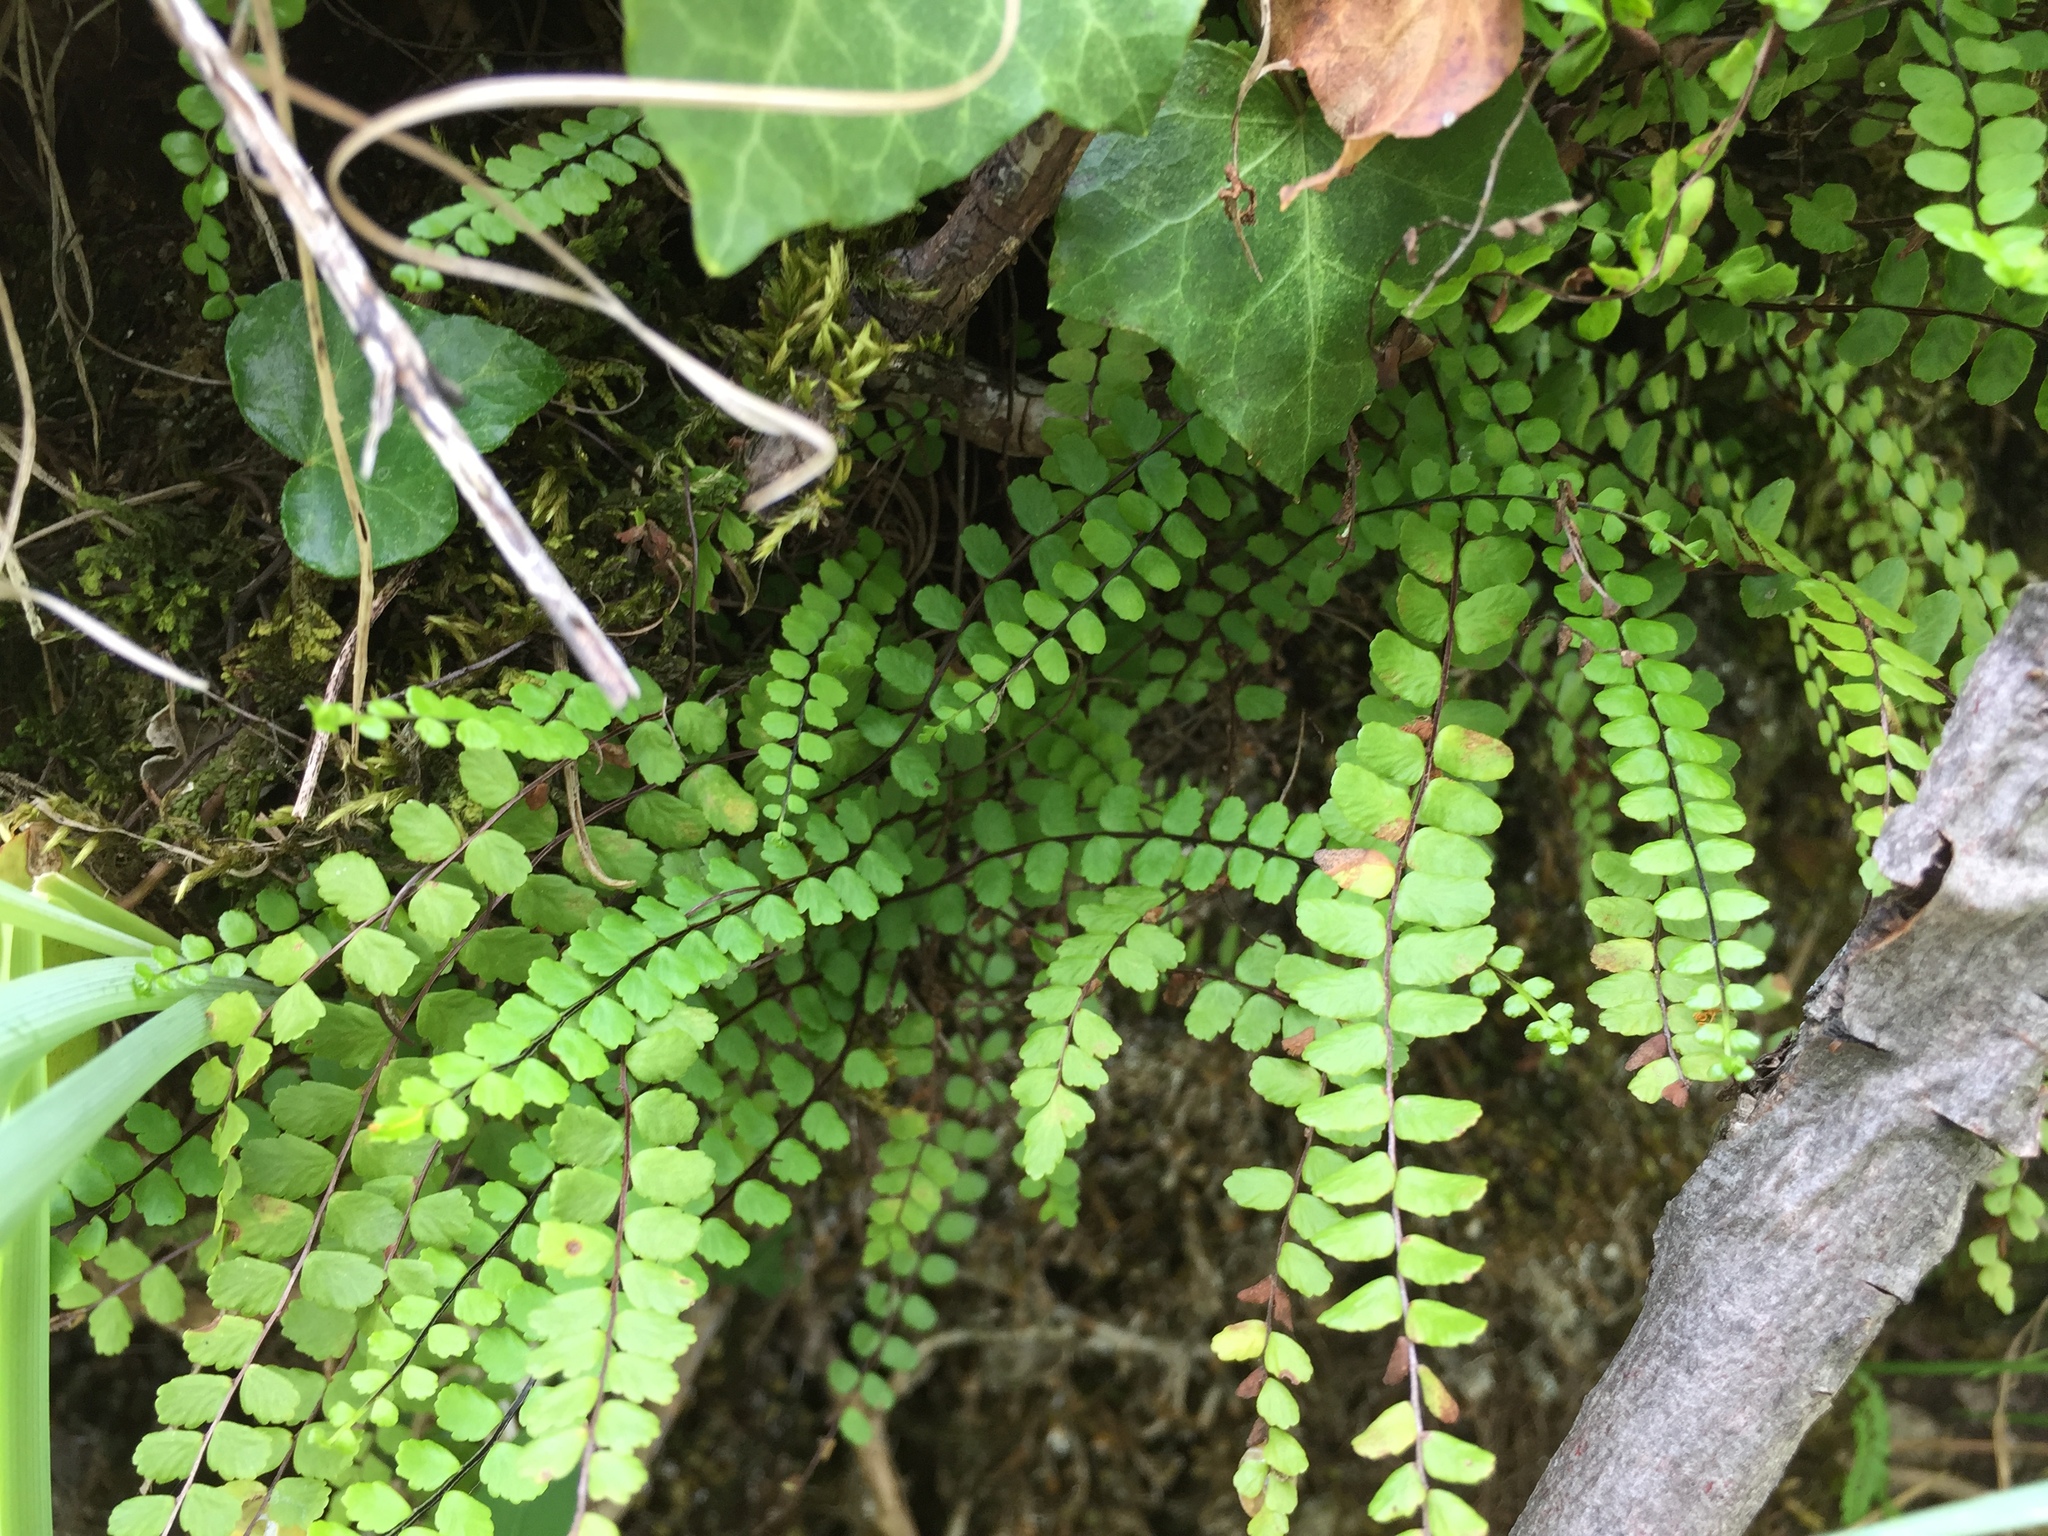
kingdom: Plantae
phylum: Tracheophyta
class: Polypodiopsida
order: Polypodiales
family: Aspleniaceae
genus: Asplenium
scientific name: Asplenium trichomanes
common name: Maidenhair spleenwort
